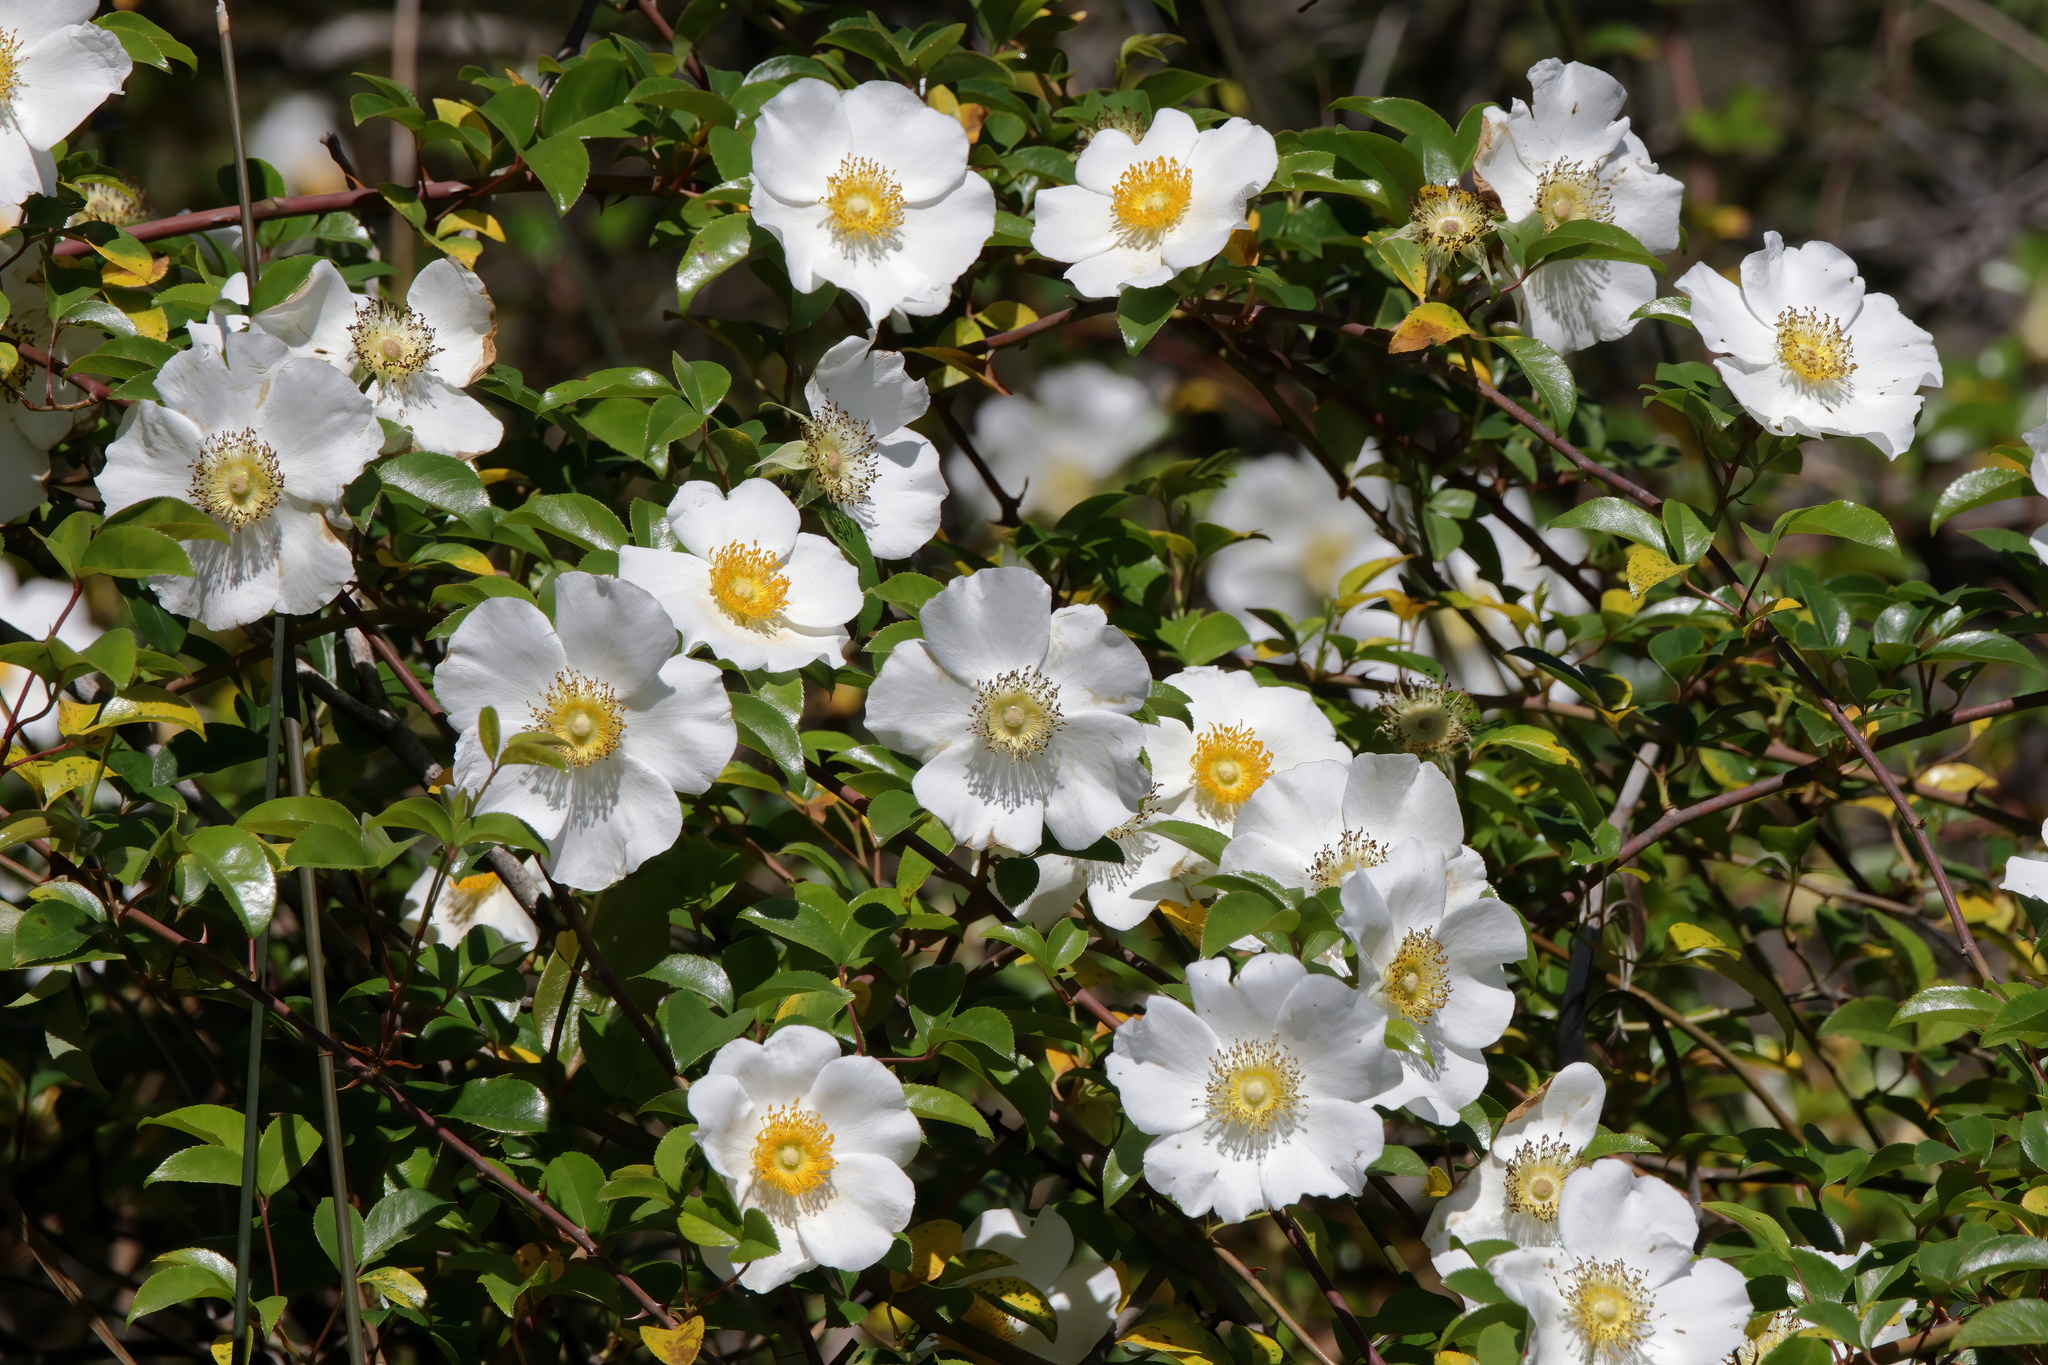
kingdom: Plantae
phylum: Tracheophyta
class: Magnoliopsida
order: Rosales
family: Rosaceae
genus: Rosa
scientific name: Rosa laevigata
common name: Cherokee rose
